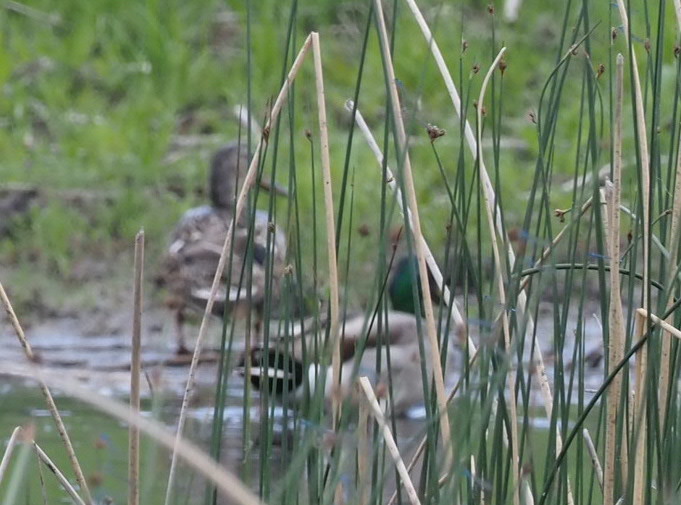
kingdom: Animalia
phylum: Chordata
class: Aves
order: Anseriformes
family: Anatidae
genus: Anas
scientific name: Anas platyrhynchos
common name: Mallard
